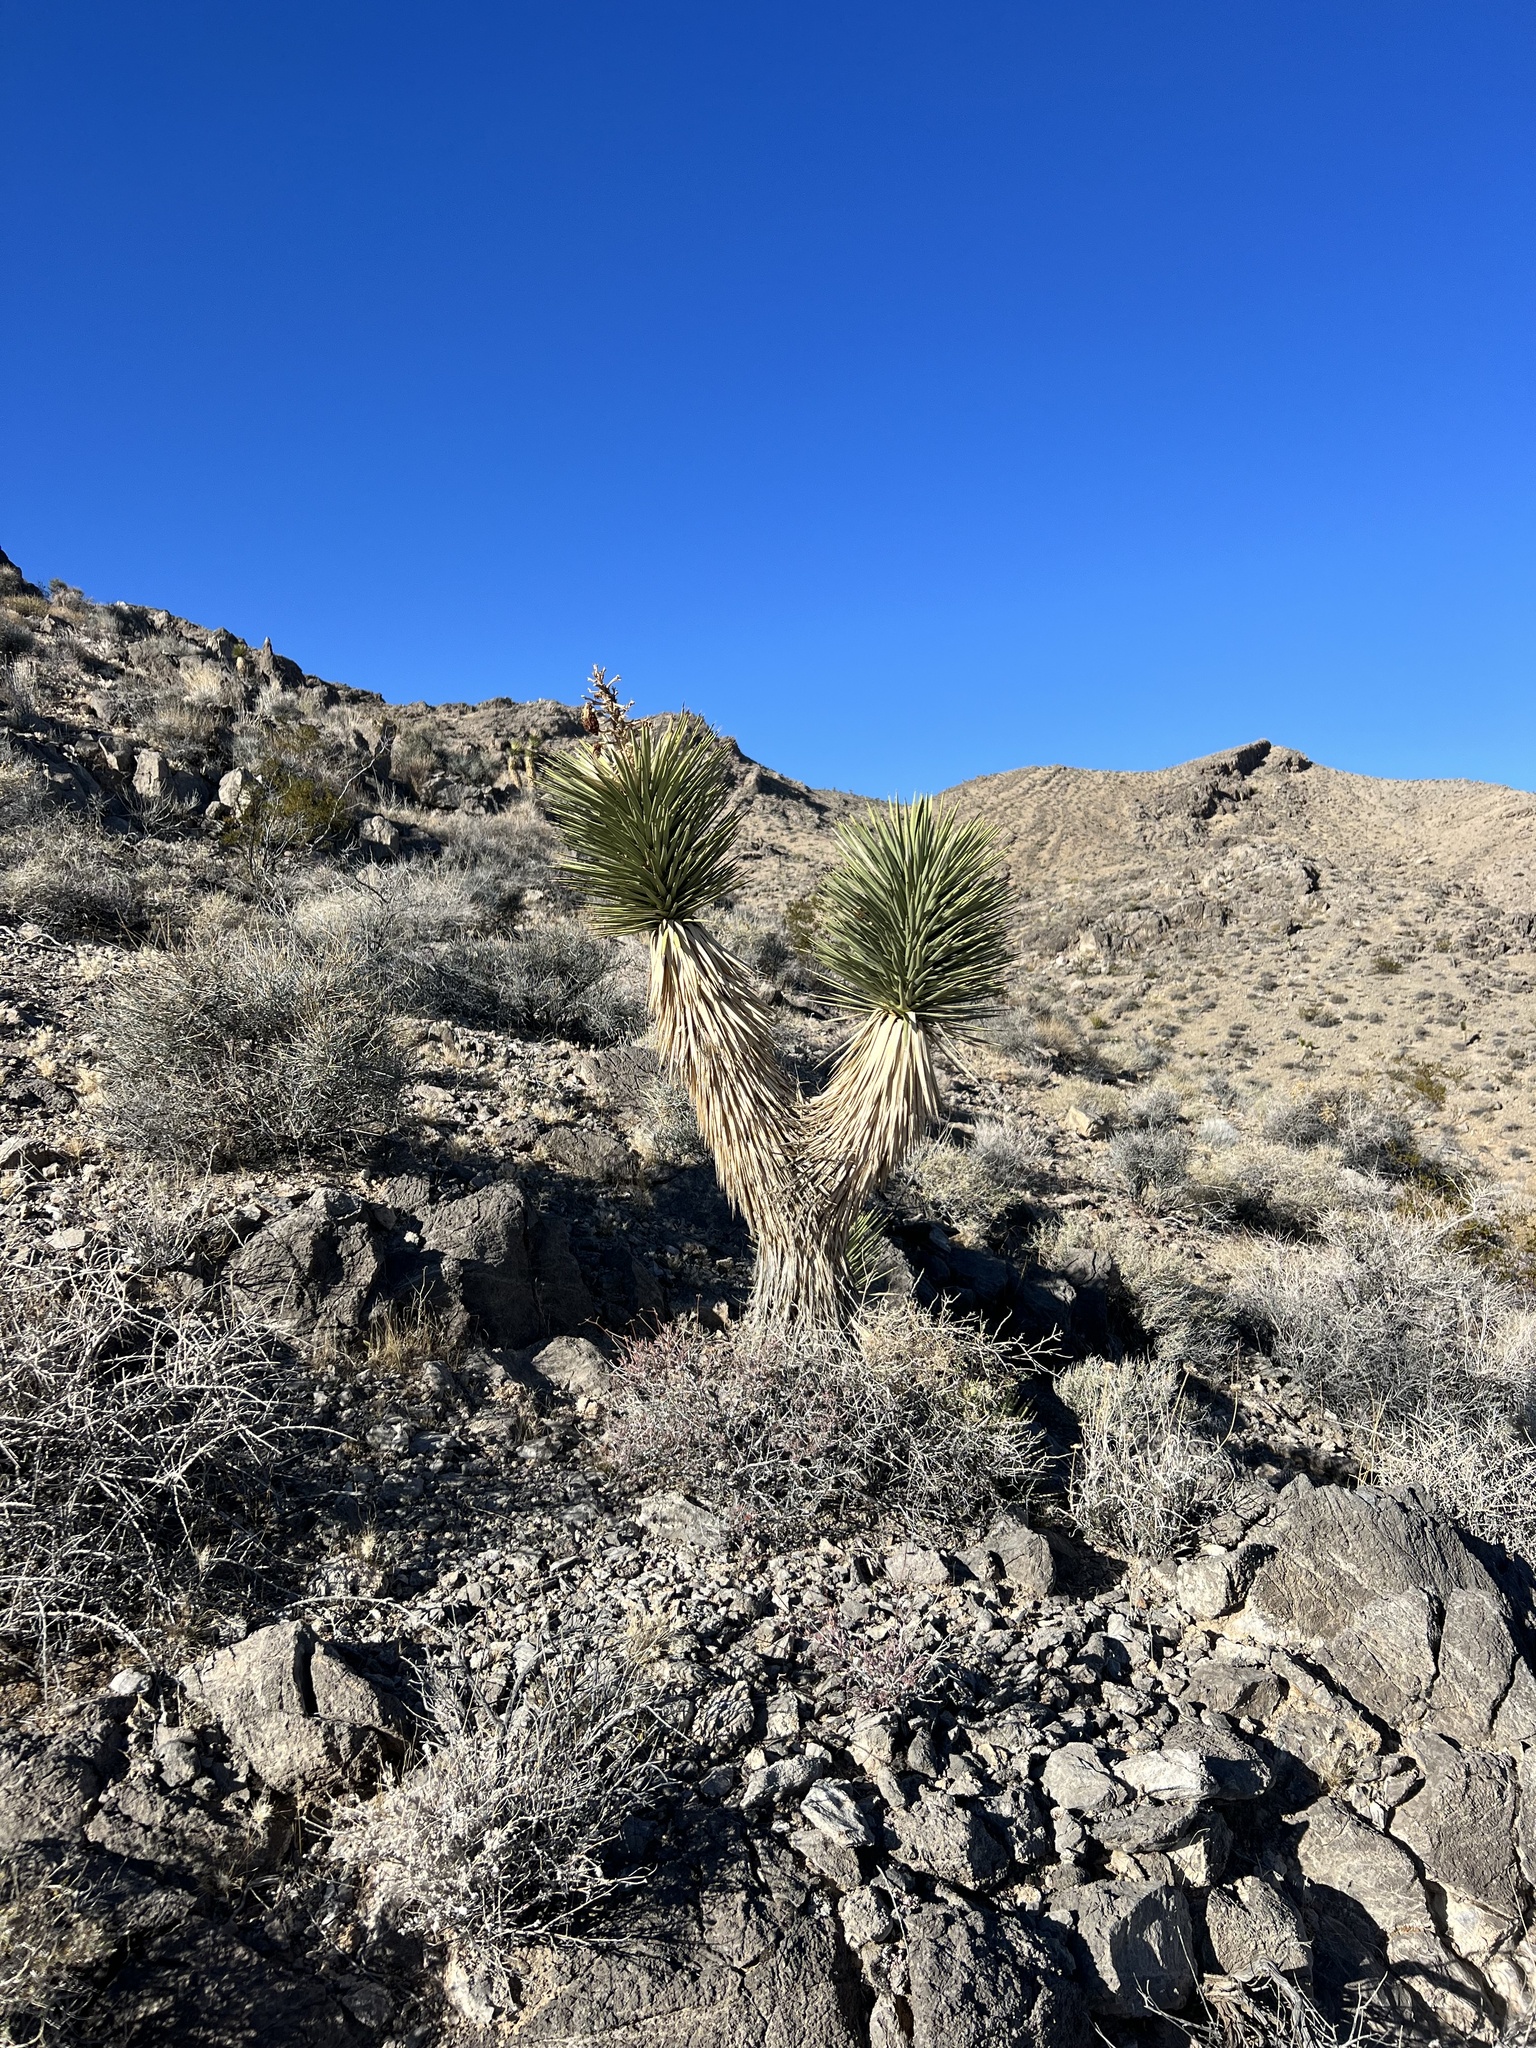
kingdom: Plantae
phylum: Tracheophyta
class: Liliopsida
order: Asparagales
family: Asparagaceae
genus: Yucca
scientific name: Yucca brevifolia
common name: Joshua tree
